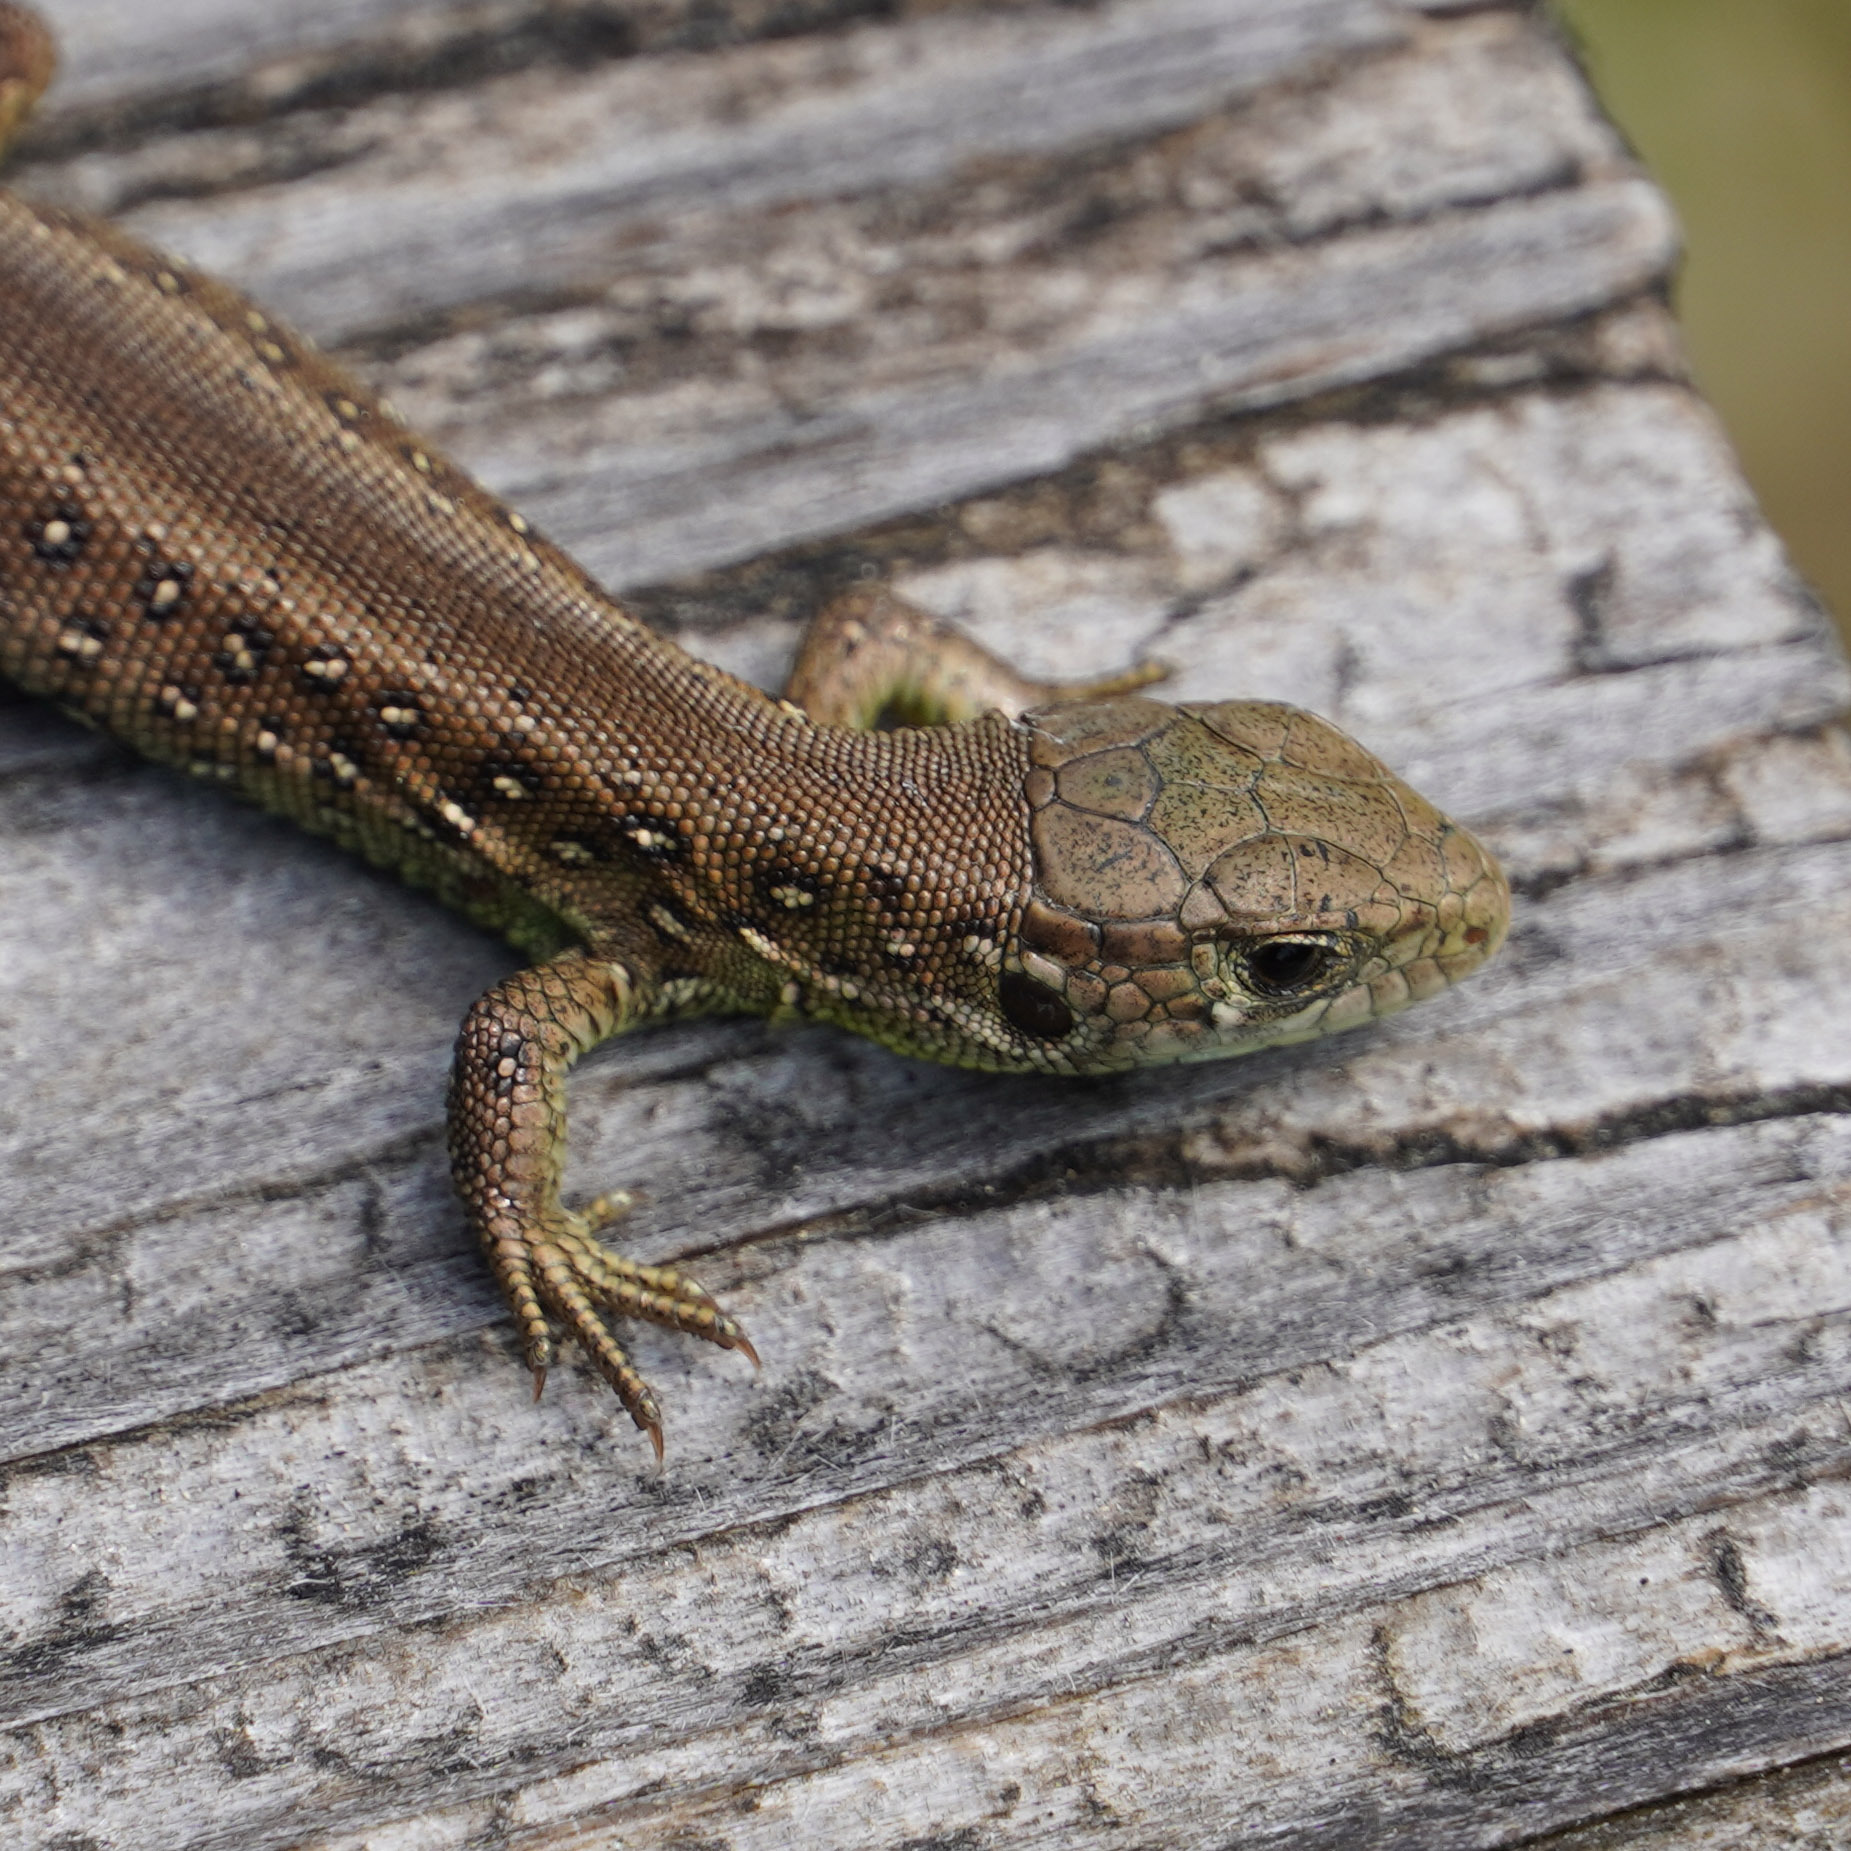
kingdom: Animalia
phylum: Chordata
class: Squamata
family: Lacertidae
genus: Lacerta
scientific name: Lacerta agilis
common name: Sand lizard
